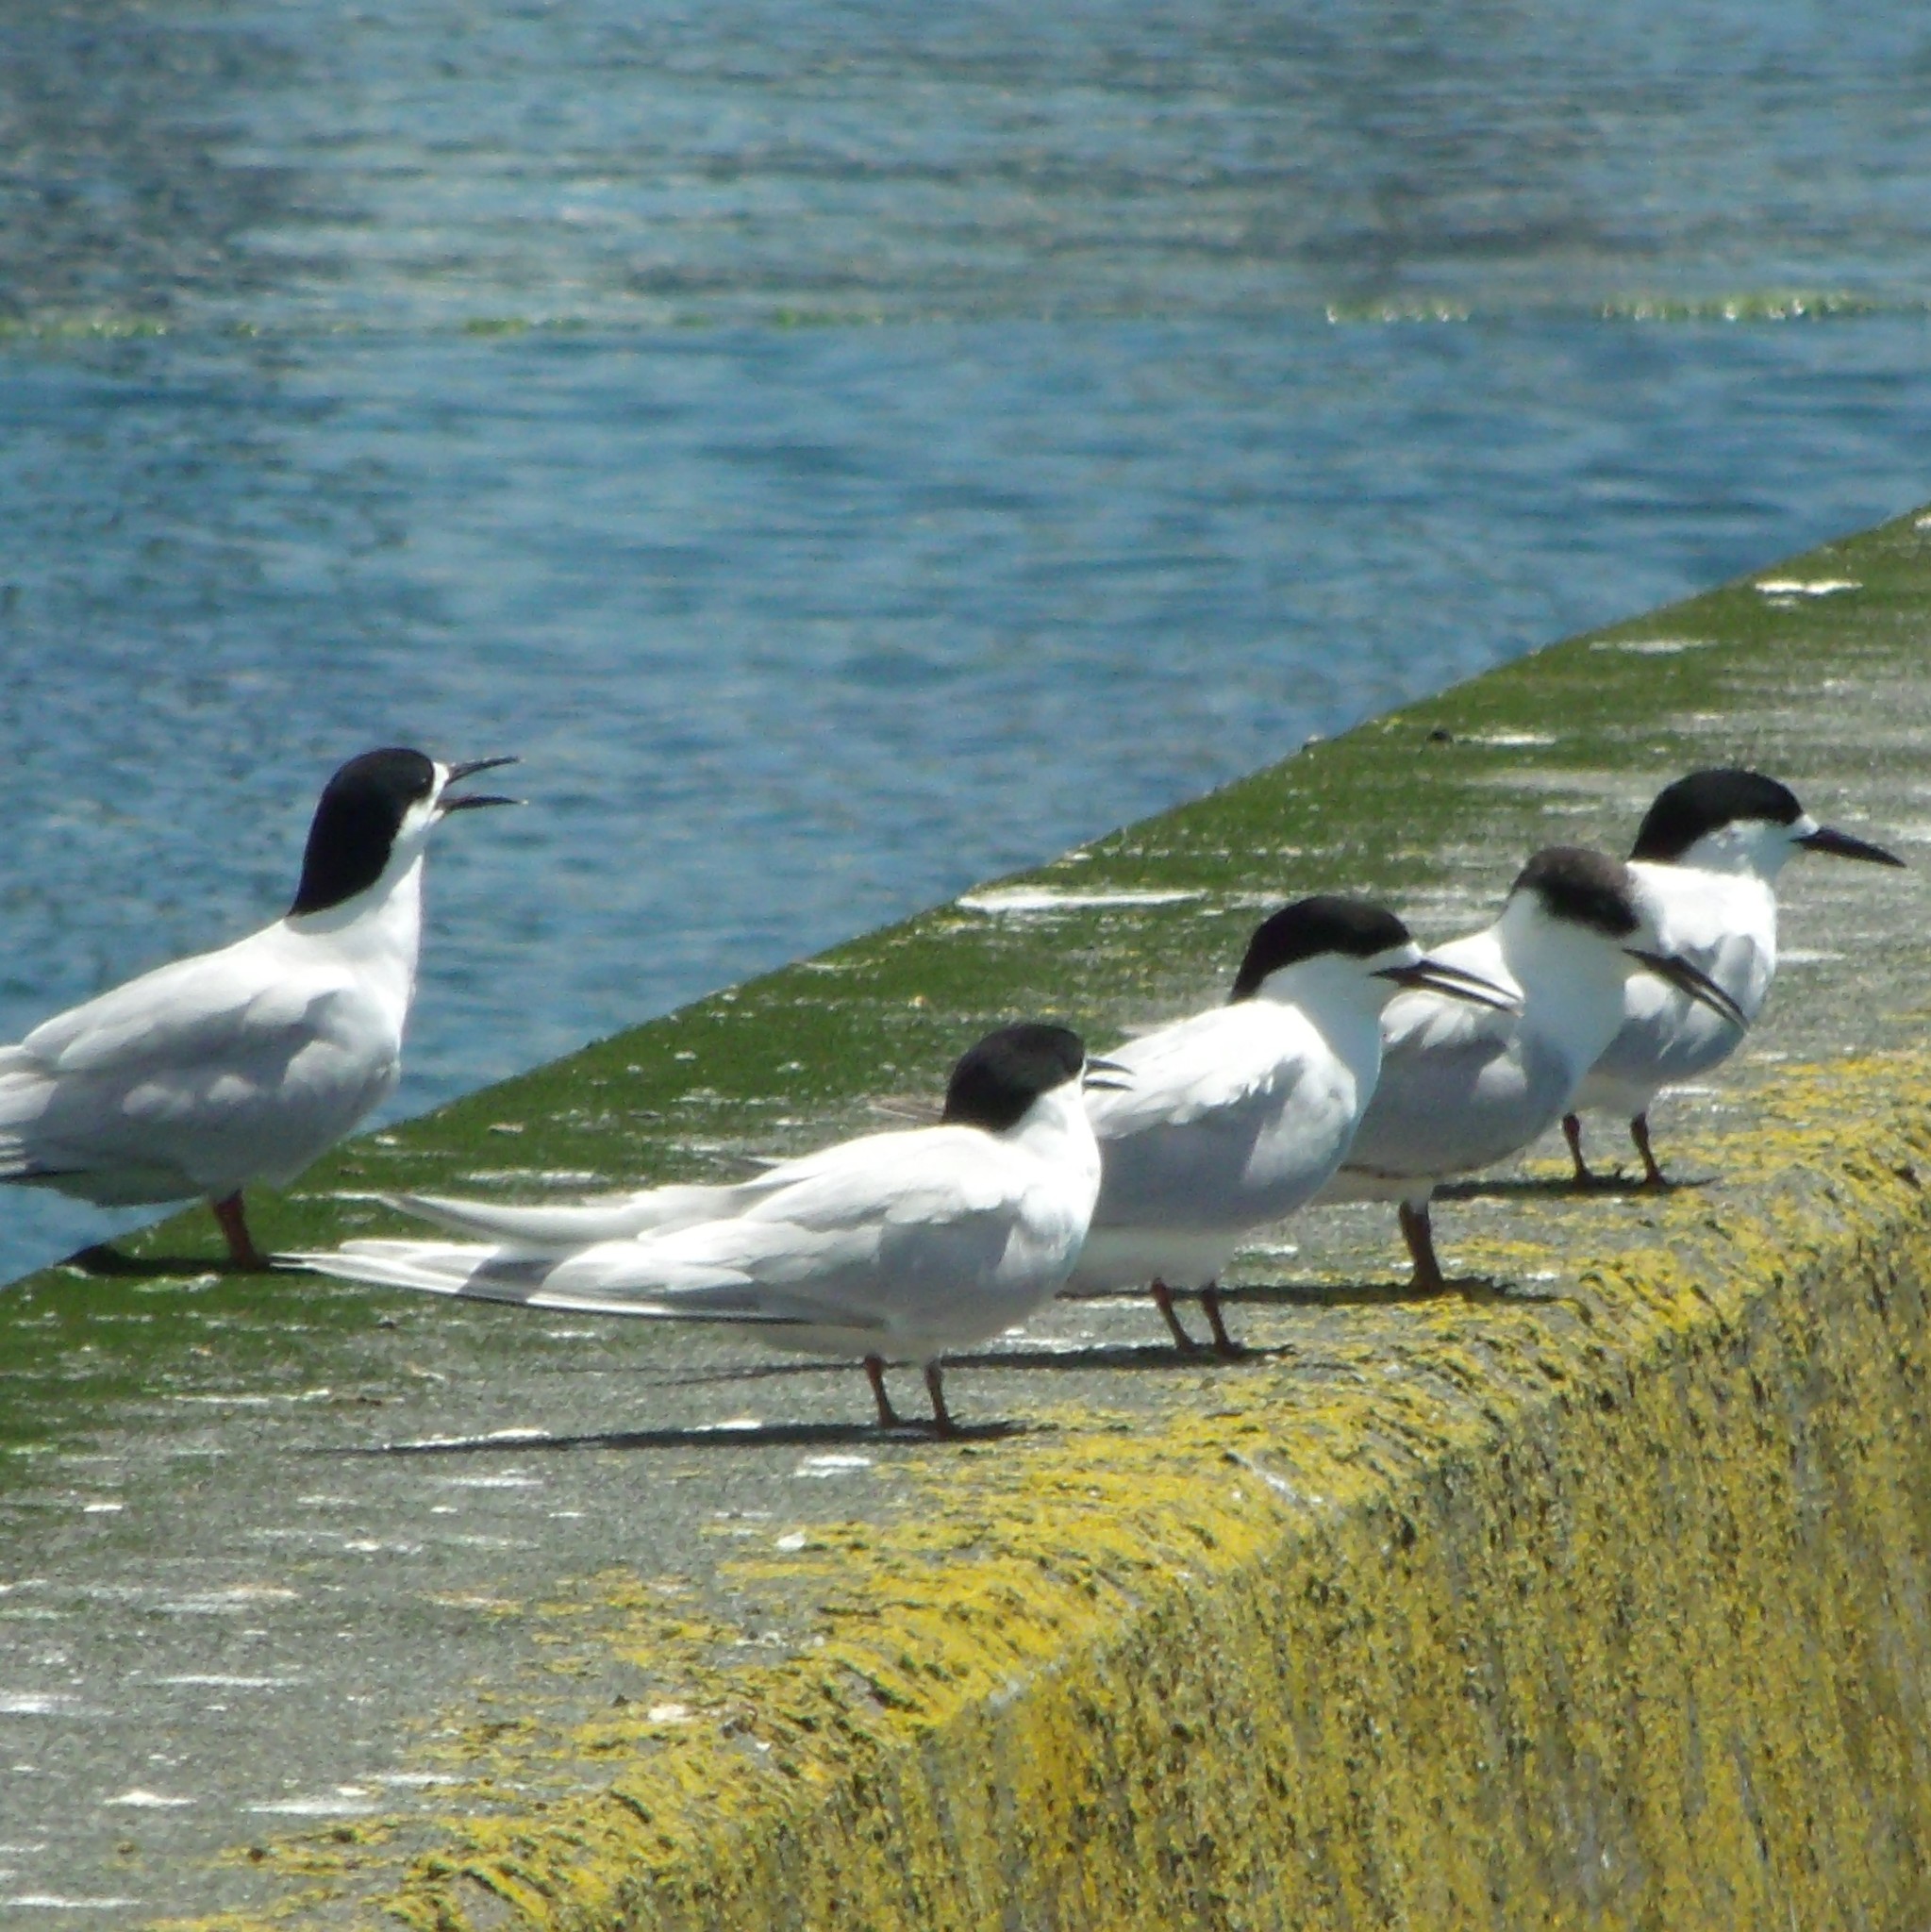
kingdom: Animalia
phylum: Chordata
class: Aves
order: Charadriiformes
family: Laridae
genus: Sterna
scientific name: Sterna striata
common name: White-fronted tern
